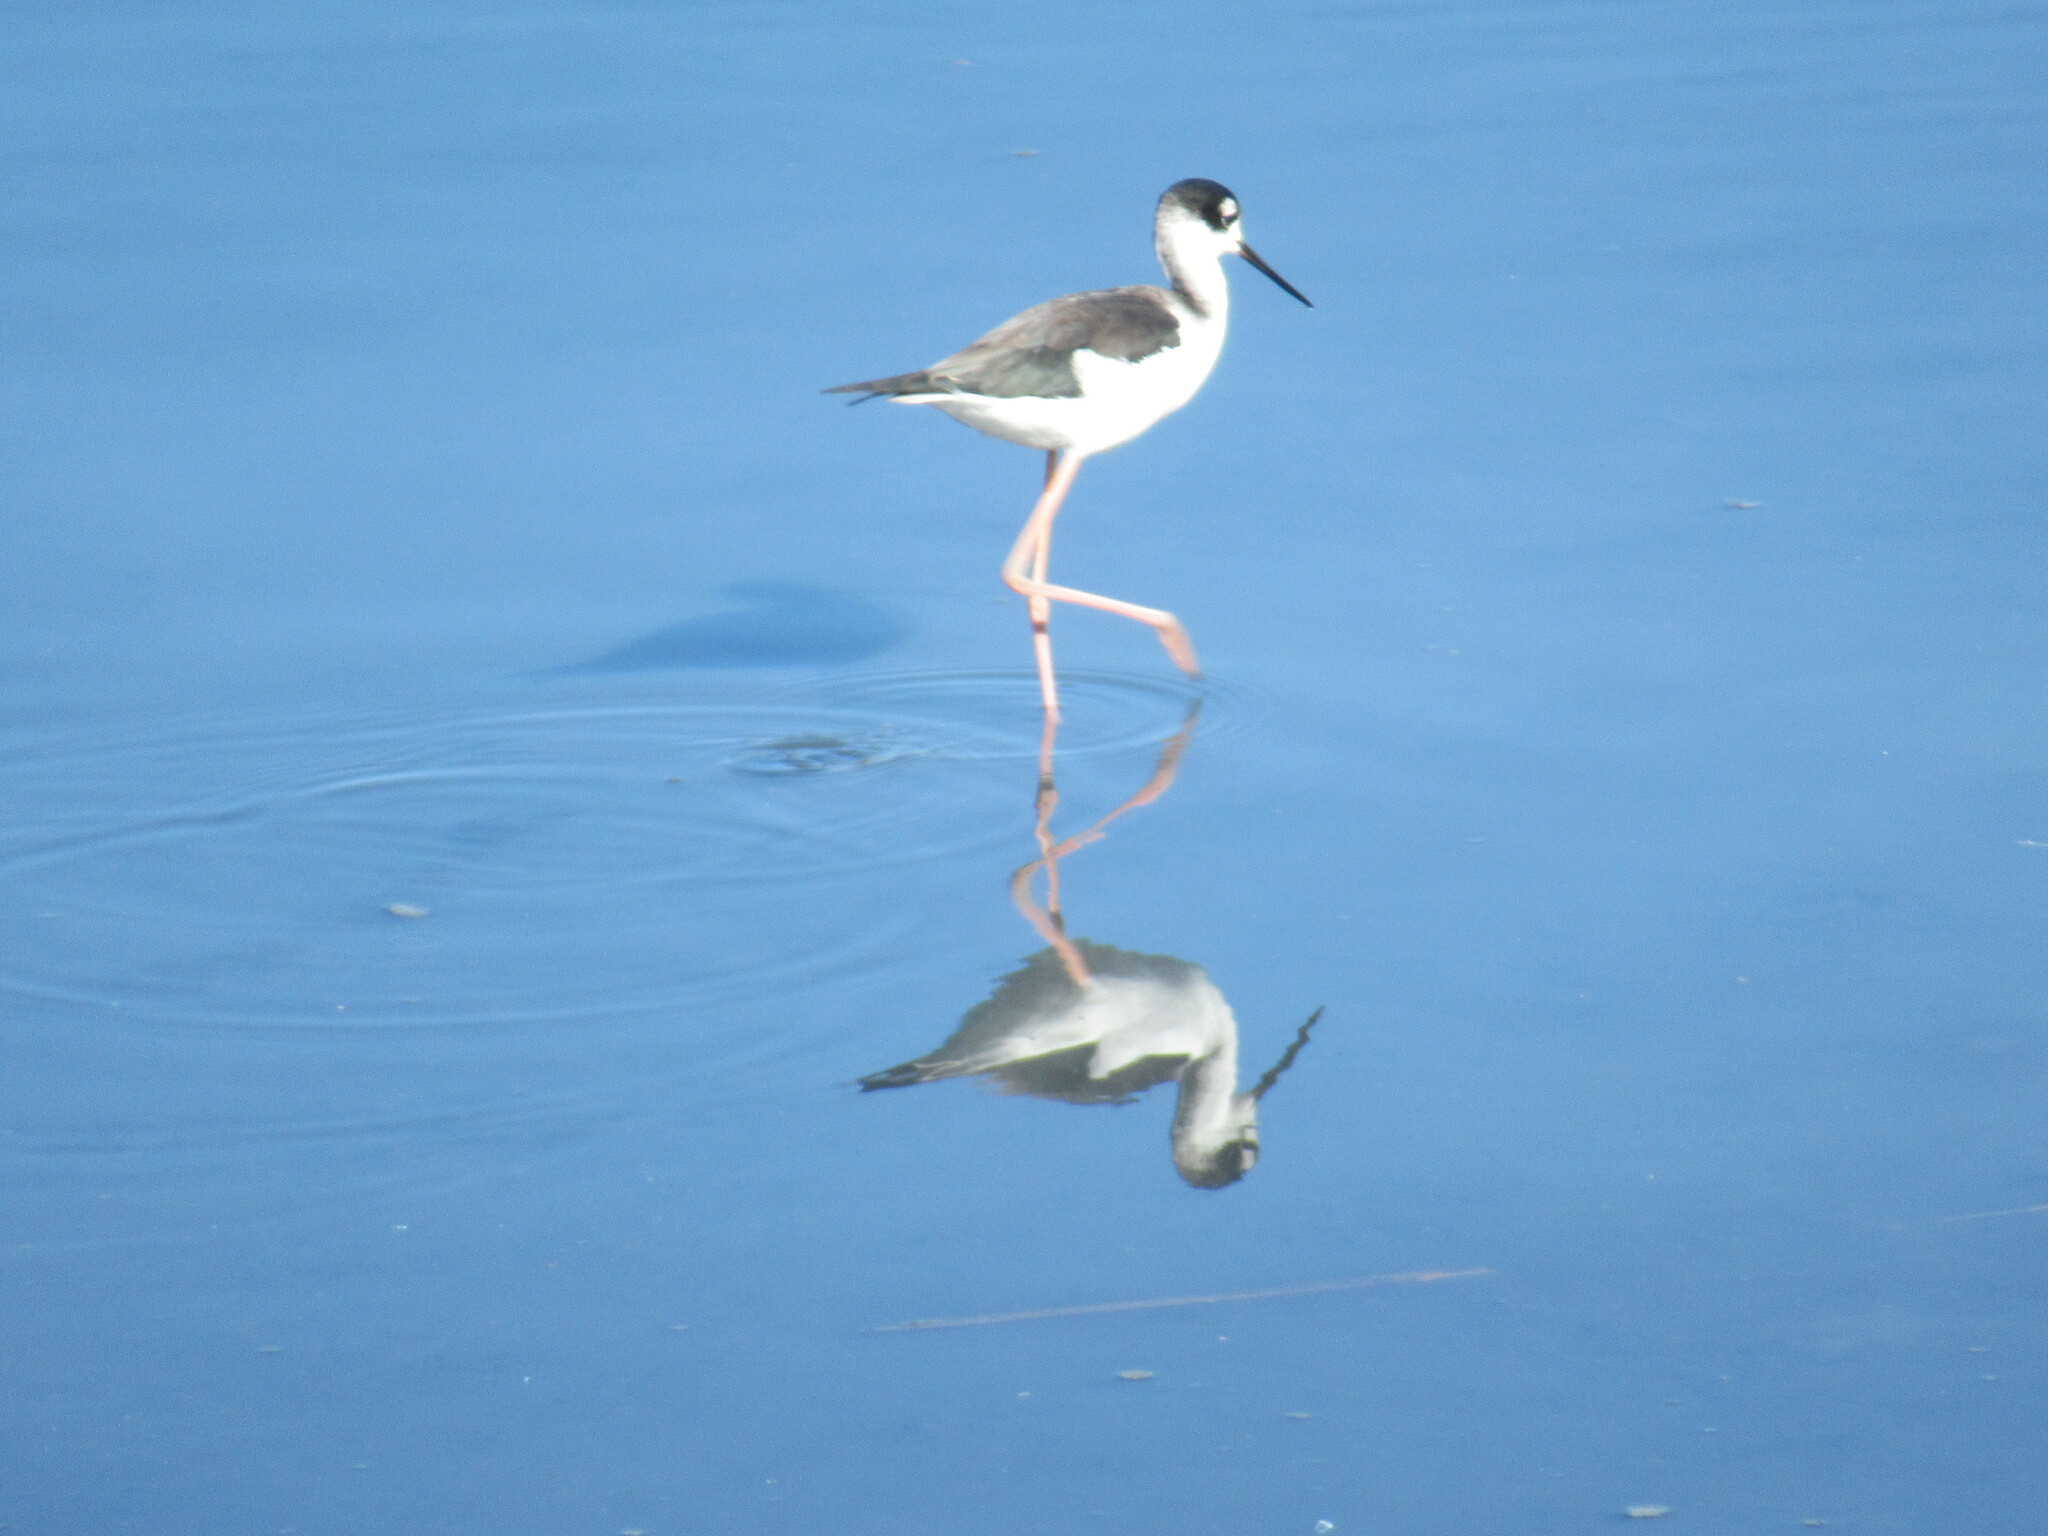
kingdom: Animalia
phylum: Chordata
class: Aves
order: Charadriiformes
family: Recurvirostridae
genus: Himantopus
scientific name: Himantopus mexicanus
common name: Black-necked stilt
